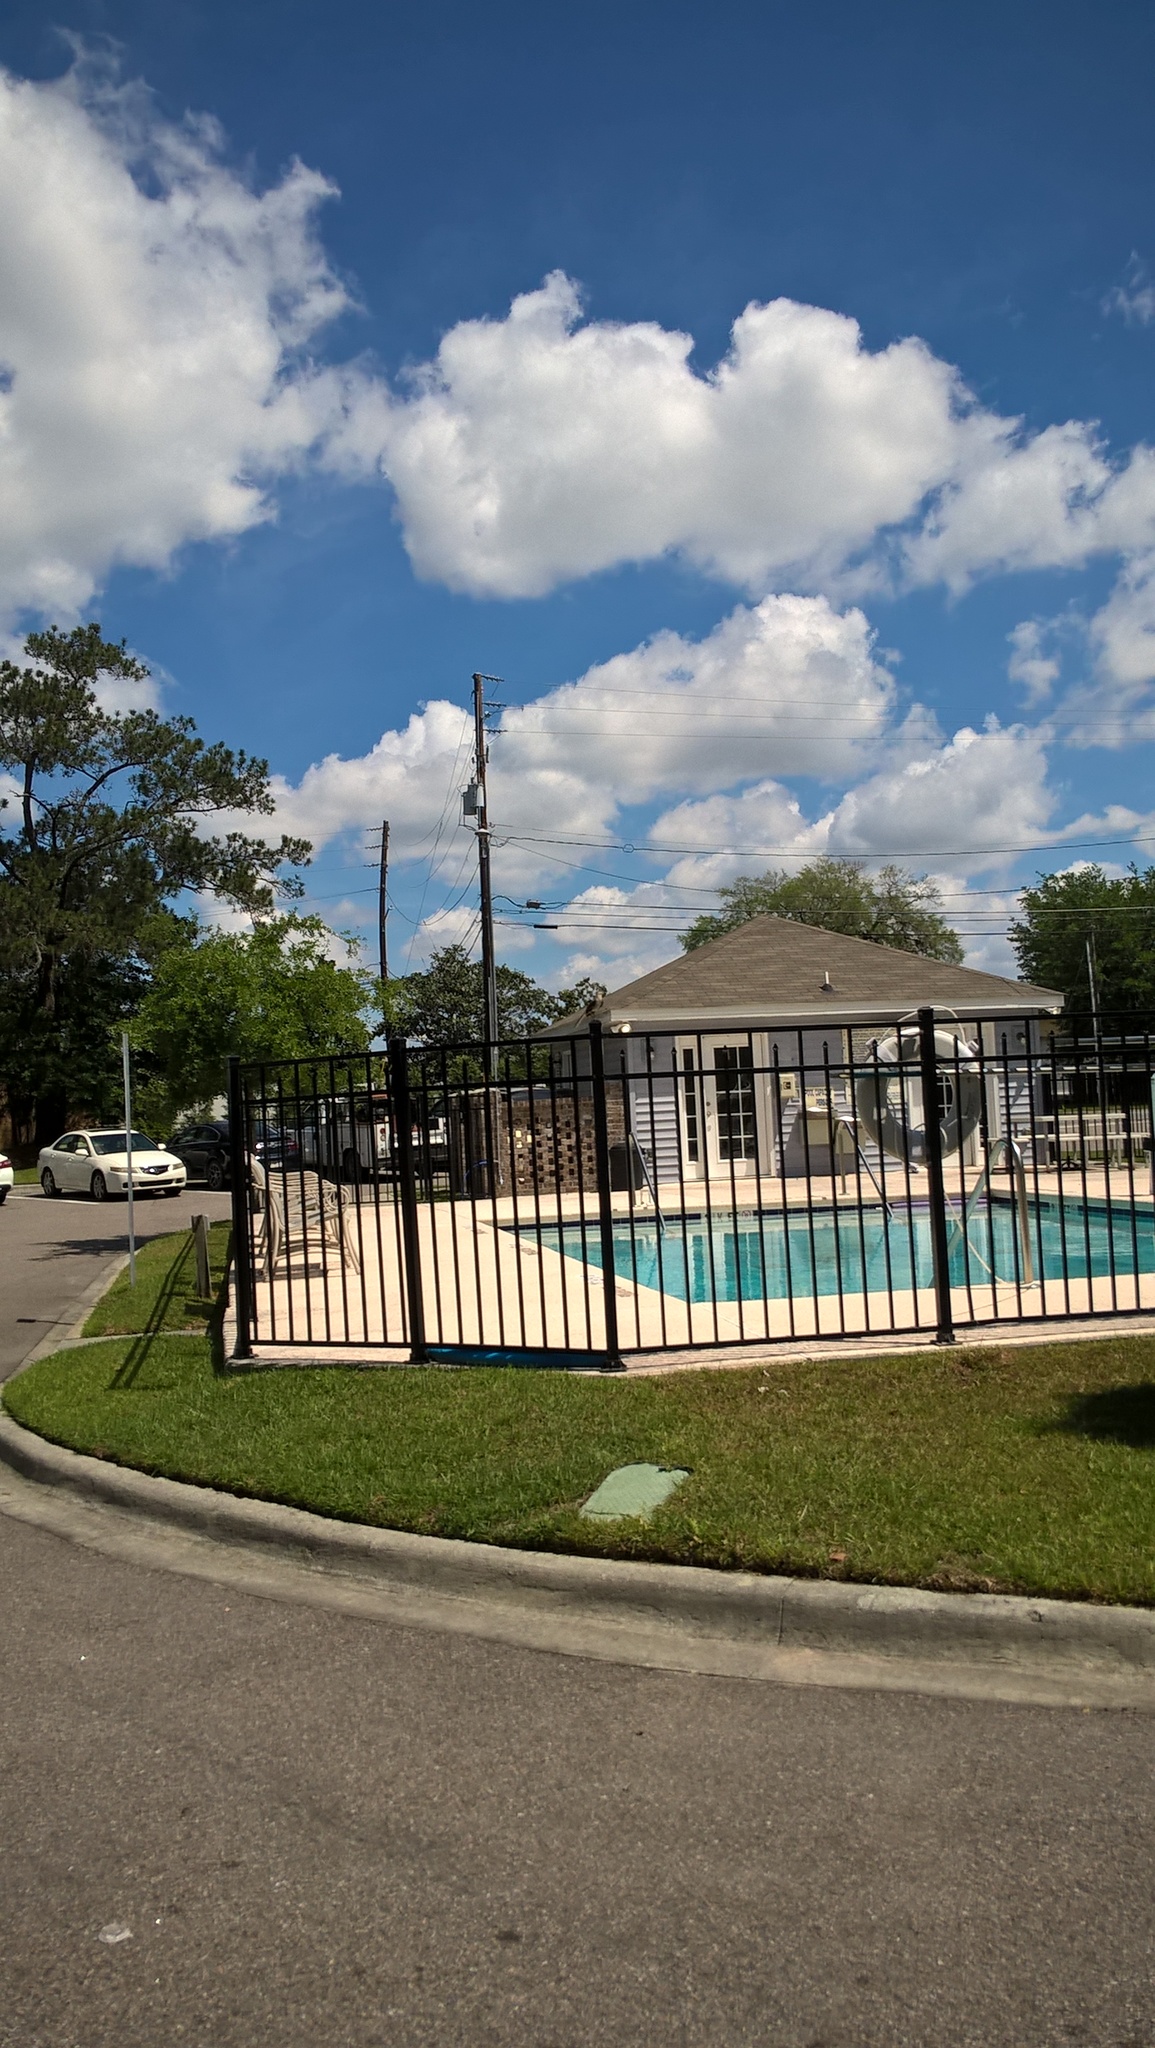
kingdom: Animalia
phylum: Chordata
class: Aves
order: Passeriformes
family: Mimidae
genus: Mimus
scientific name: Mimus polyglottos
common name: Northern mockingbird
